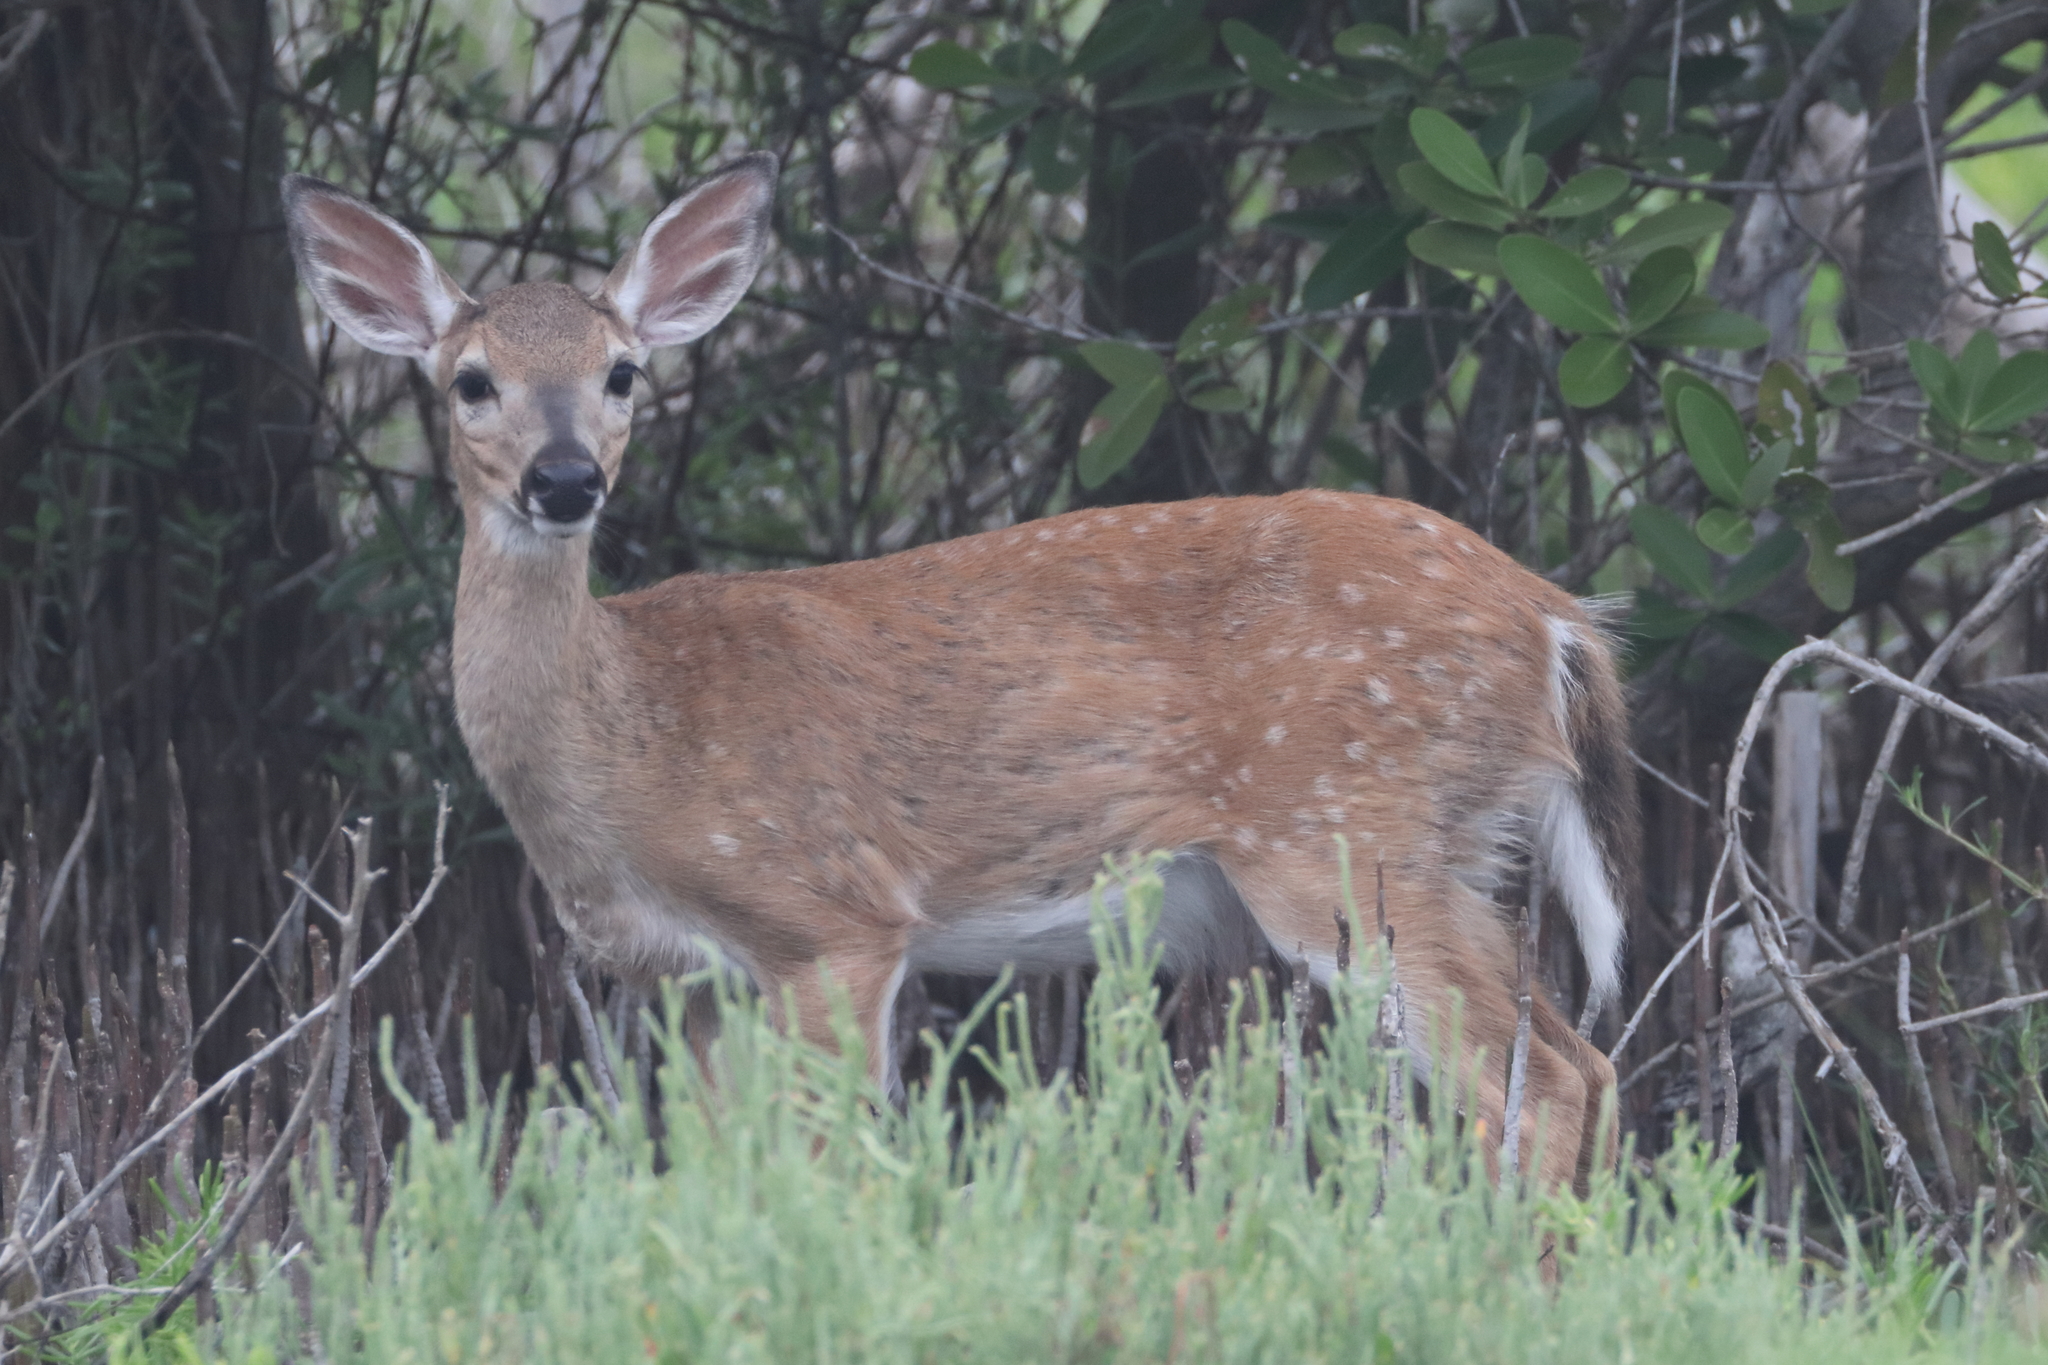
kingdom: Animalia
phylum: Chordata
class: Mammalia
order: Artiodactyla
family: Cervidae
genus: Odocoileus
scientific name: Odocoileus virginianus
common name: White-tailed deer
